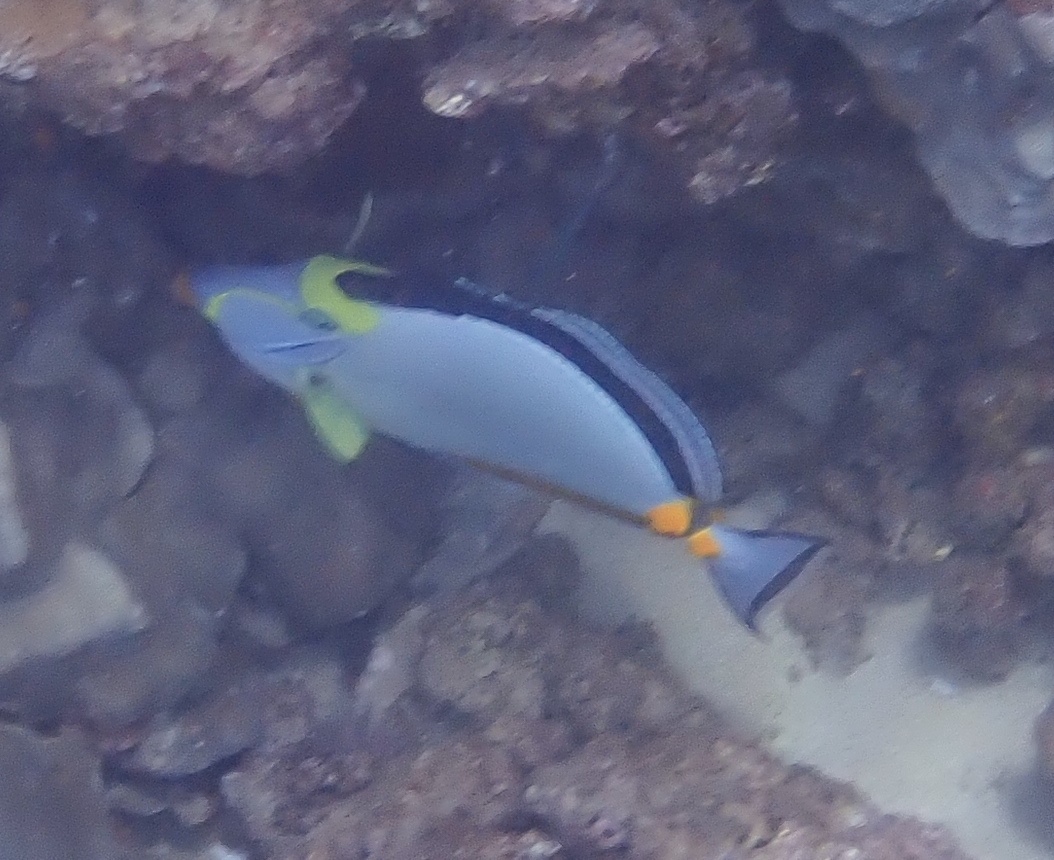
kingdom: Animalia
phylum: Chordata
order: Perciformes
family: Acanthuridae
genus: Naso
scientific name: Naso lituratus
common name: Orangespine unicornfish
